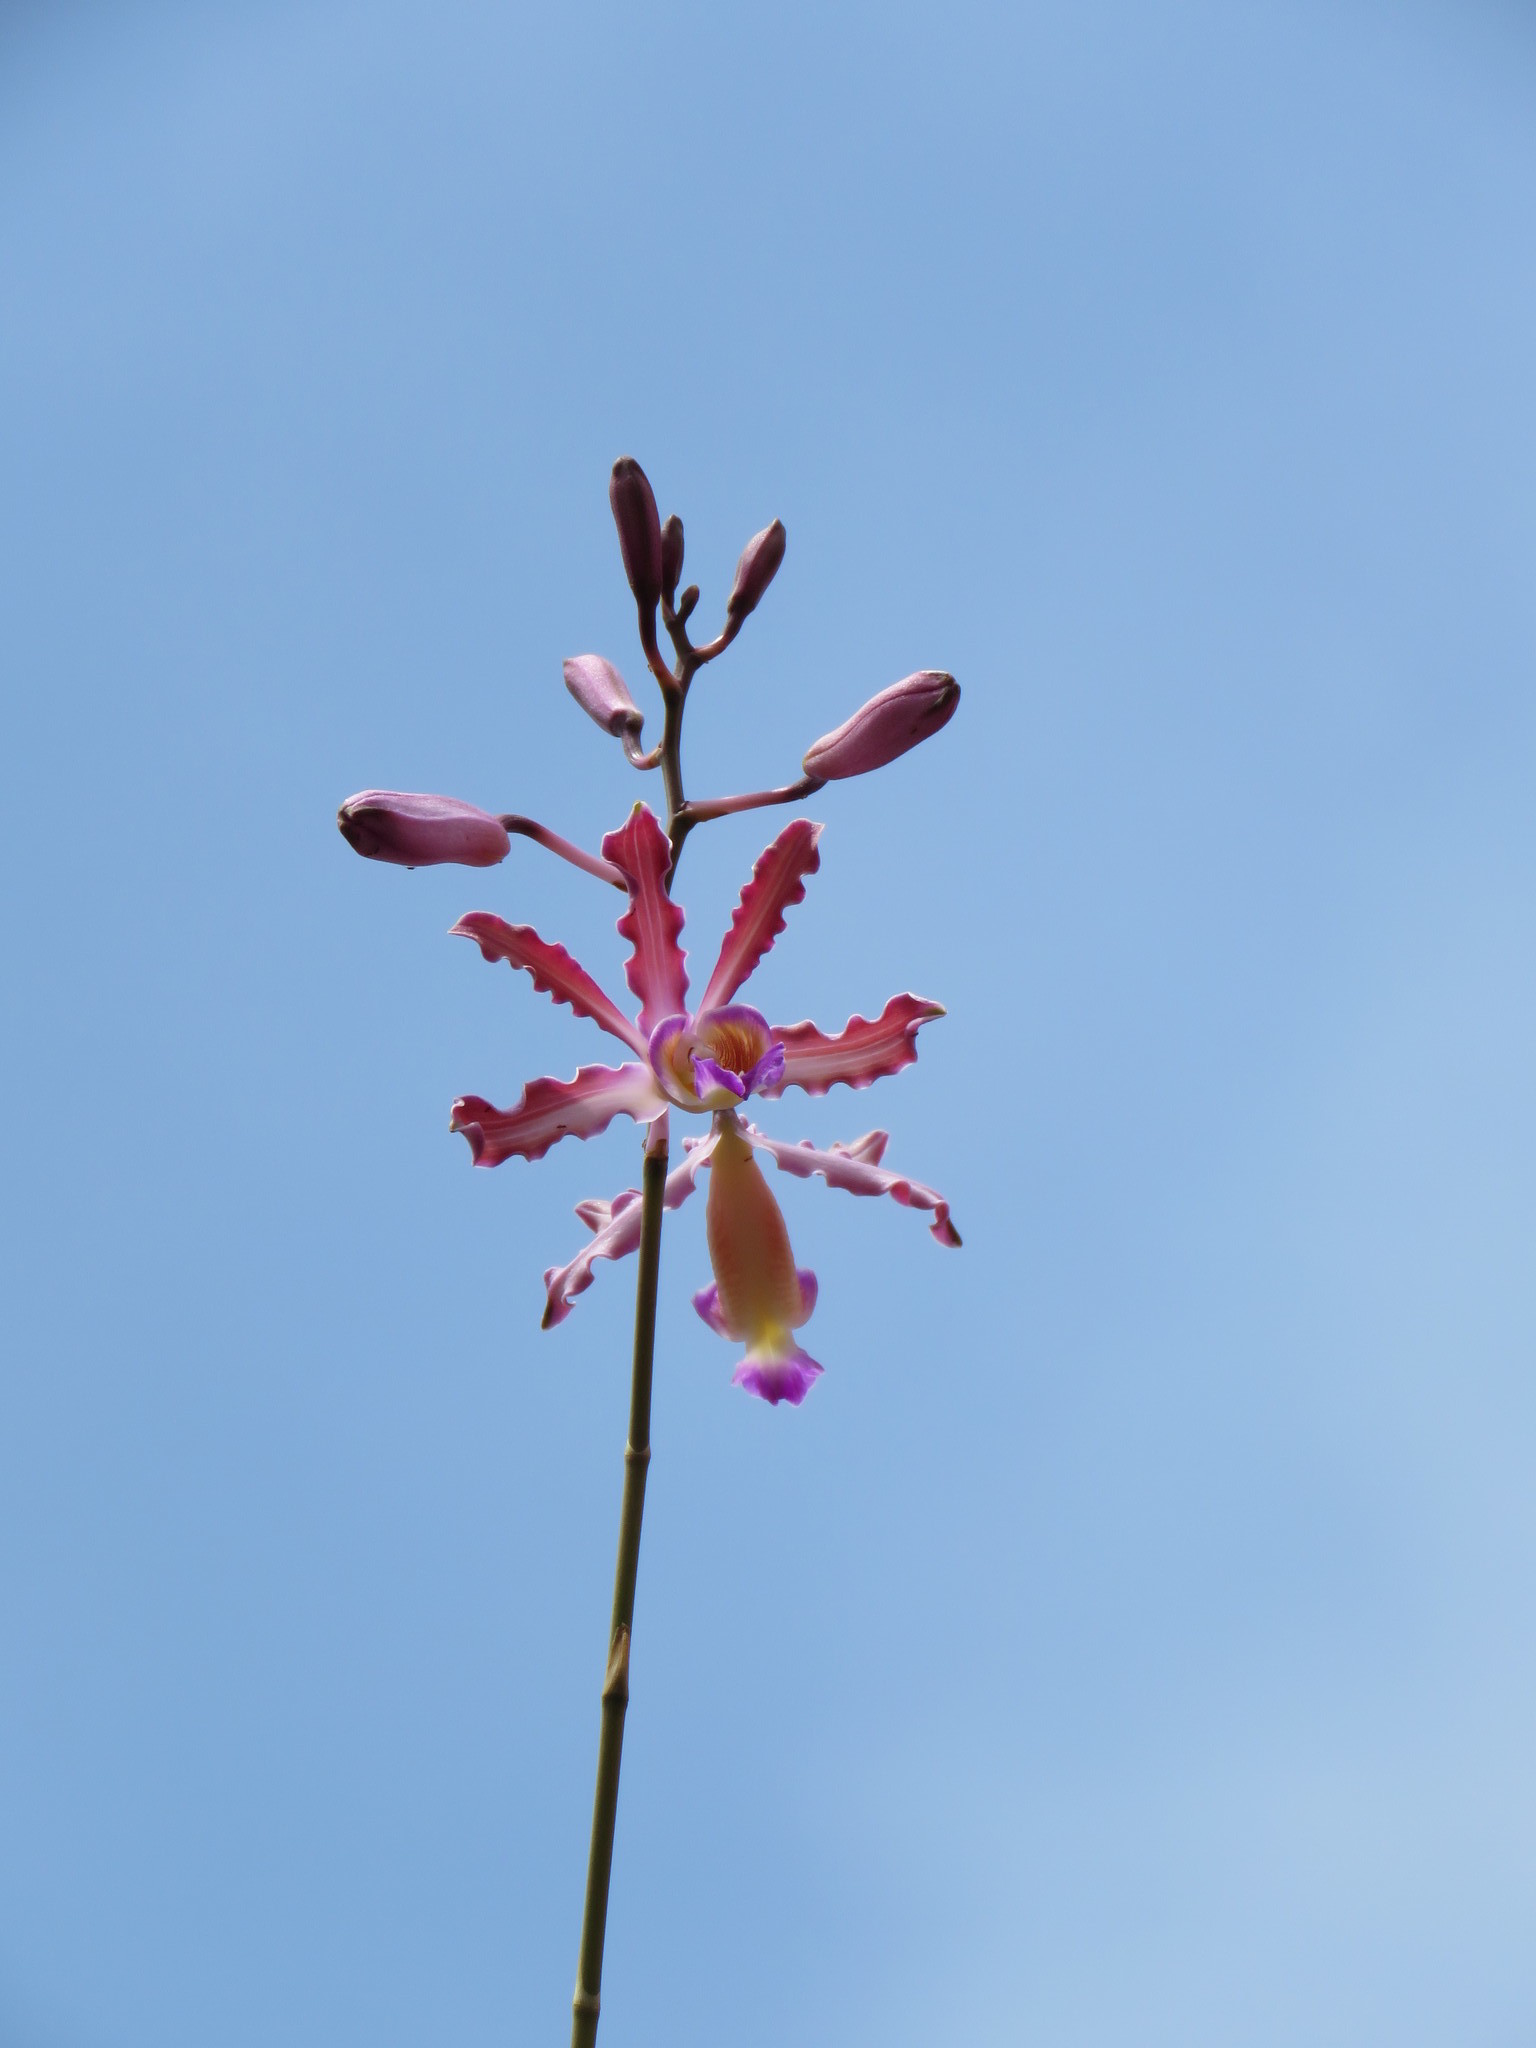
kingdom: Plantae
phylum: Tracheophyta
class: Liliopsida
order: Asparagales
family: Orchidaceae
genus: Myrmecophila
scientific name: Myrmecophila tibicinis
